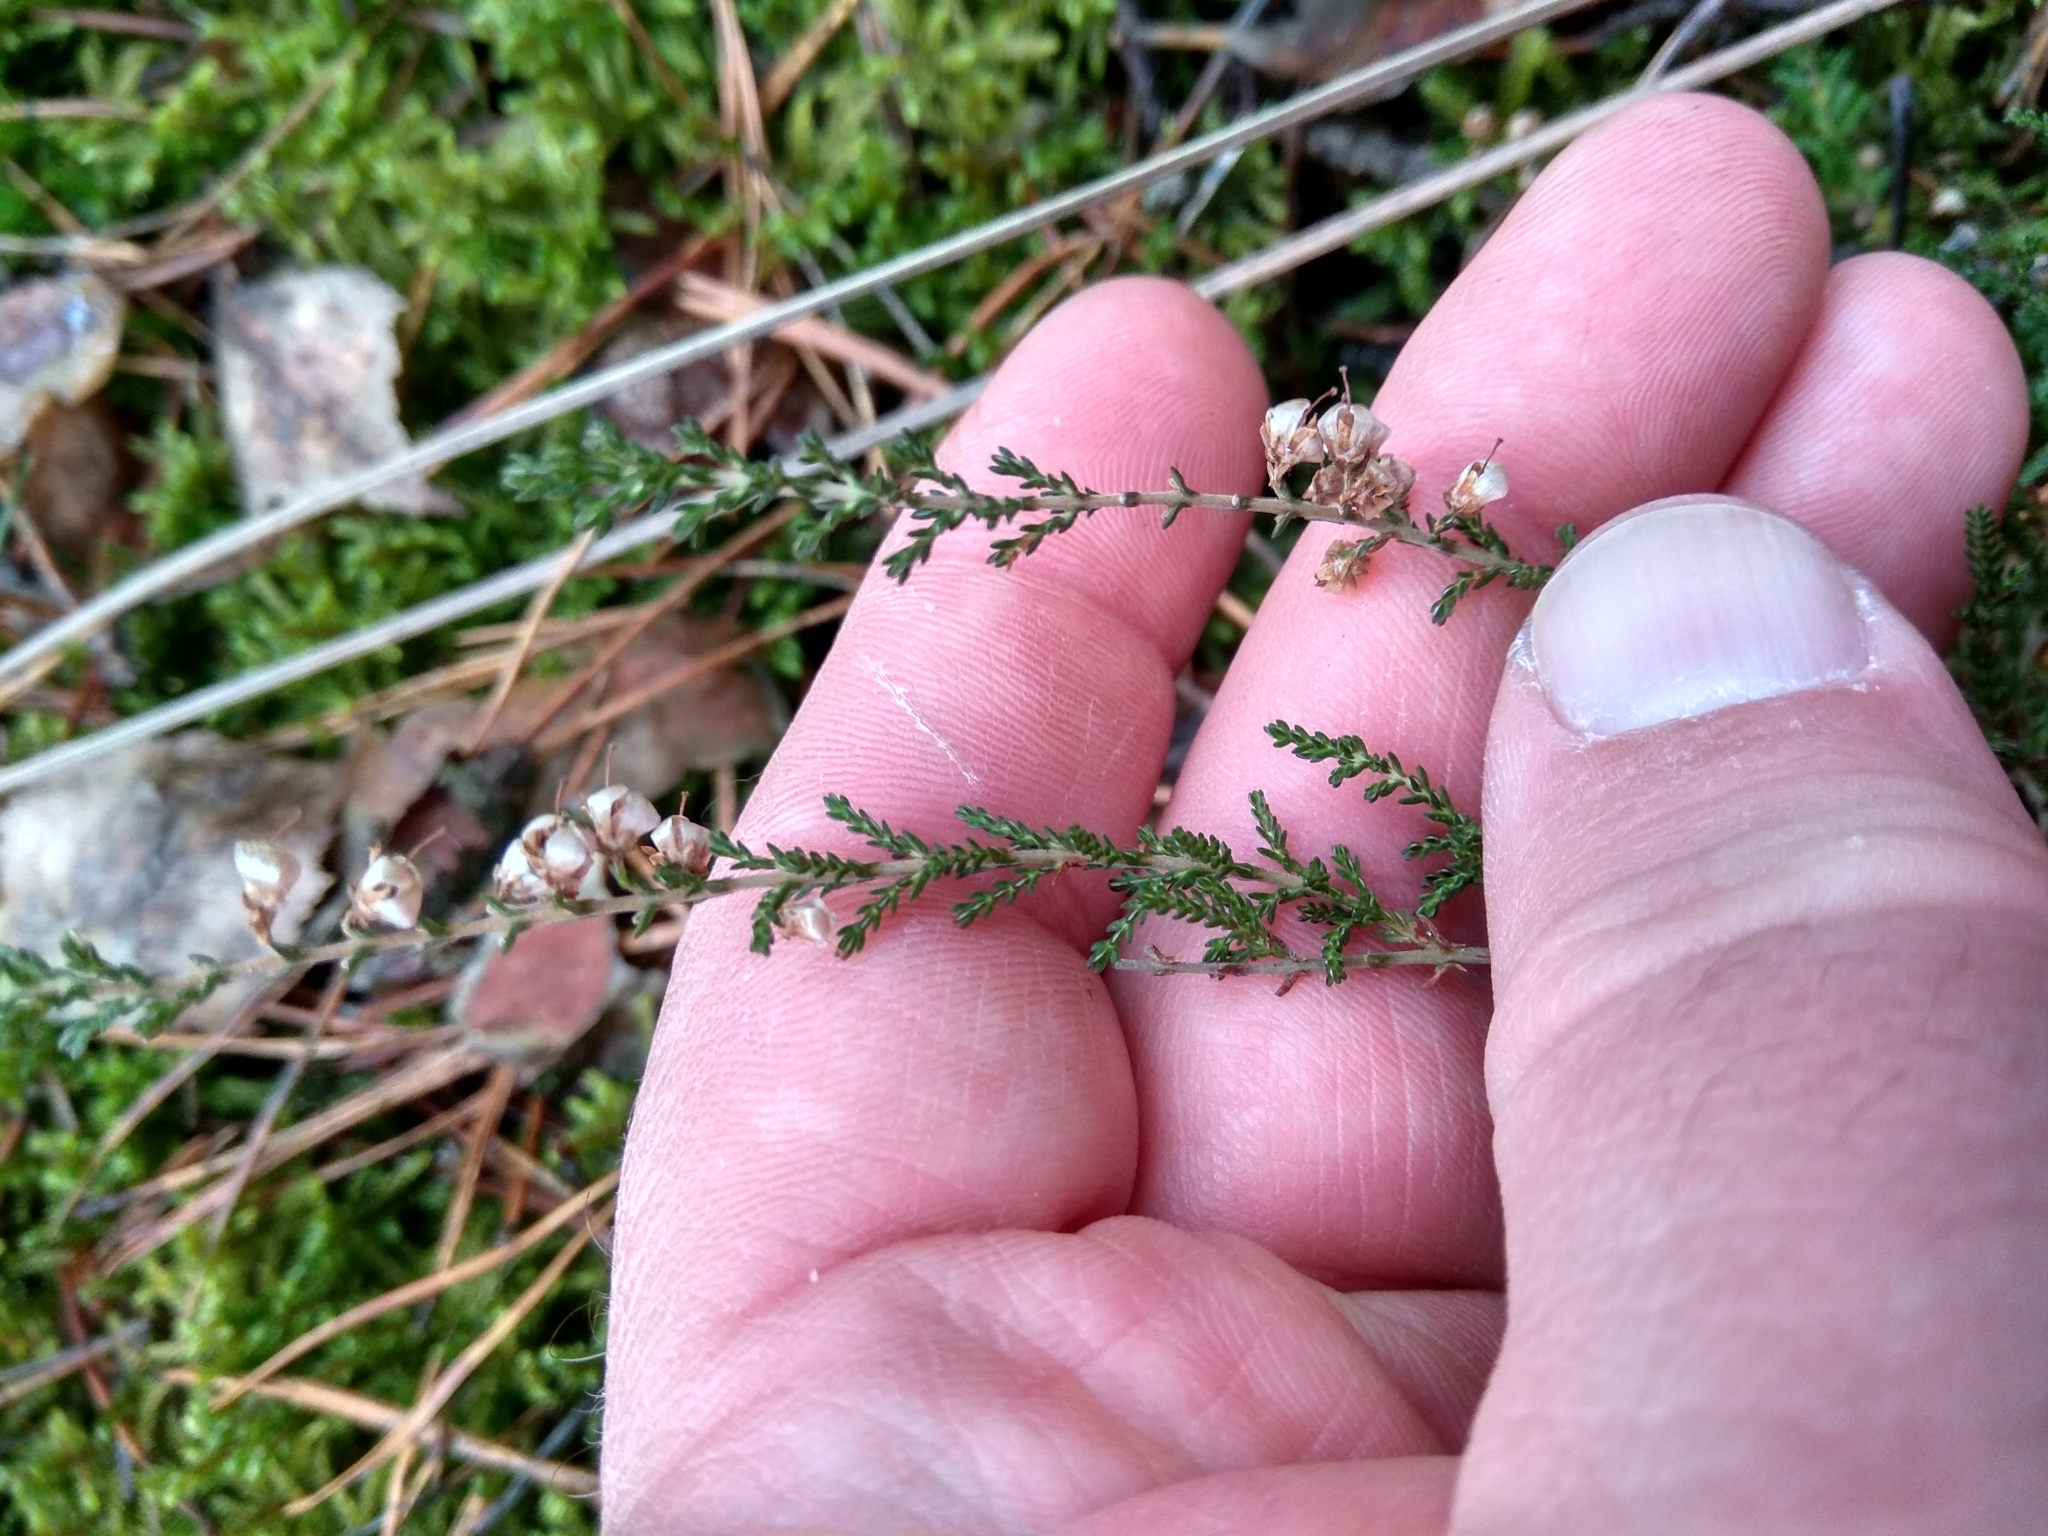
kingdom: Plantae
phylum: Tracheophyta
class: Magnoliopsida
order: Ericales
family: Ericaceae
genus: Calluna
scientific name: Calluna vulgaris
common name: Heather
